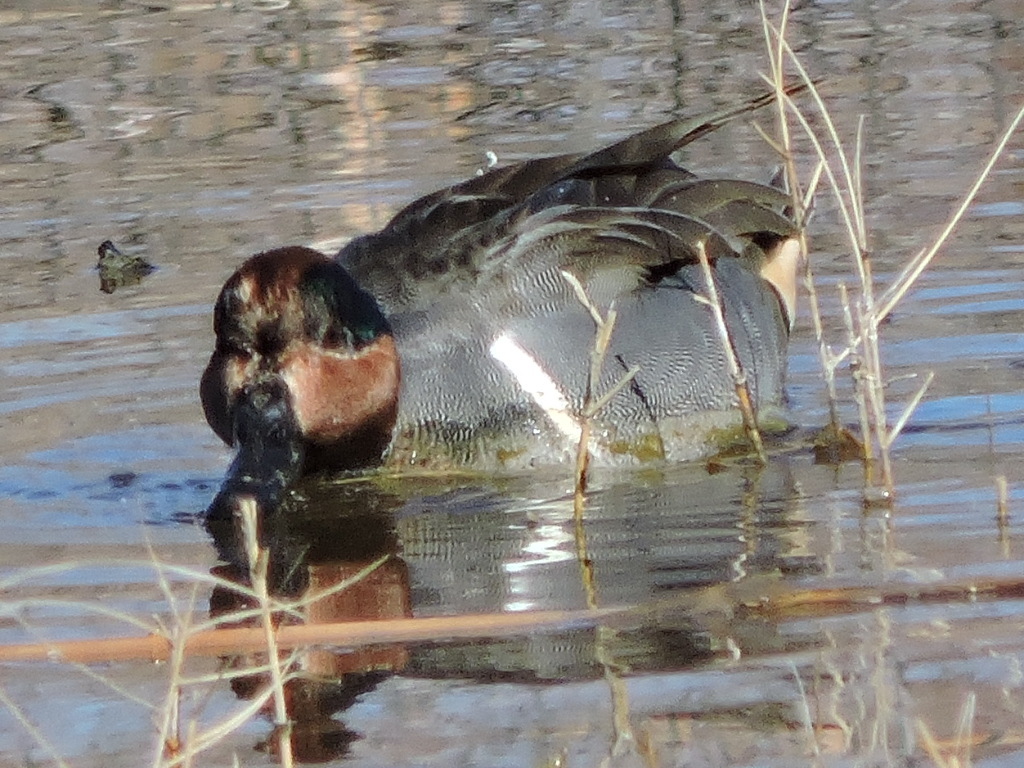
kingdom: Animalia
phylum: Chordata
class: Aves
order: Anseriformes
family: Anatidae
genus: Anas
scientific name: Anas crecca
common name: Eurasian teal
